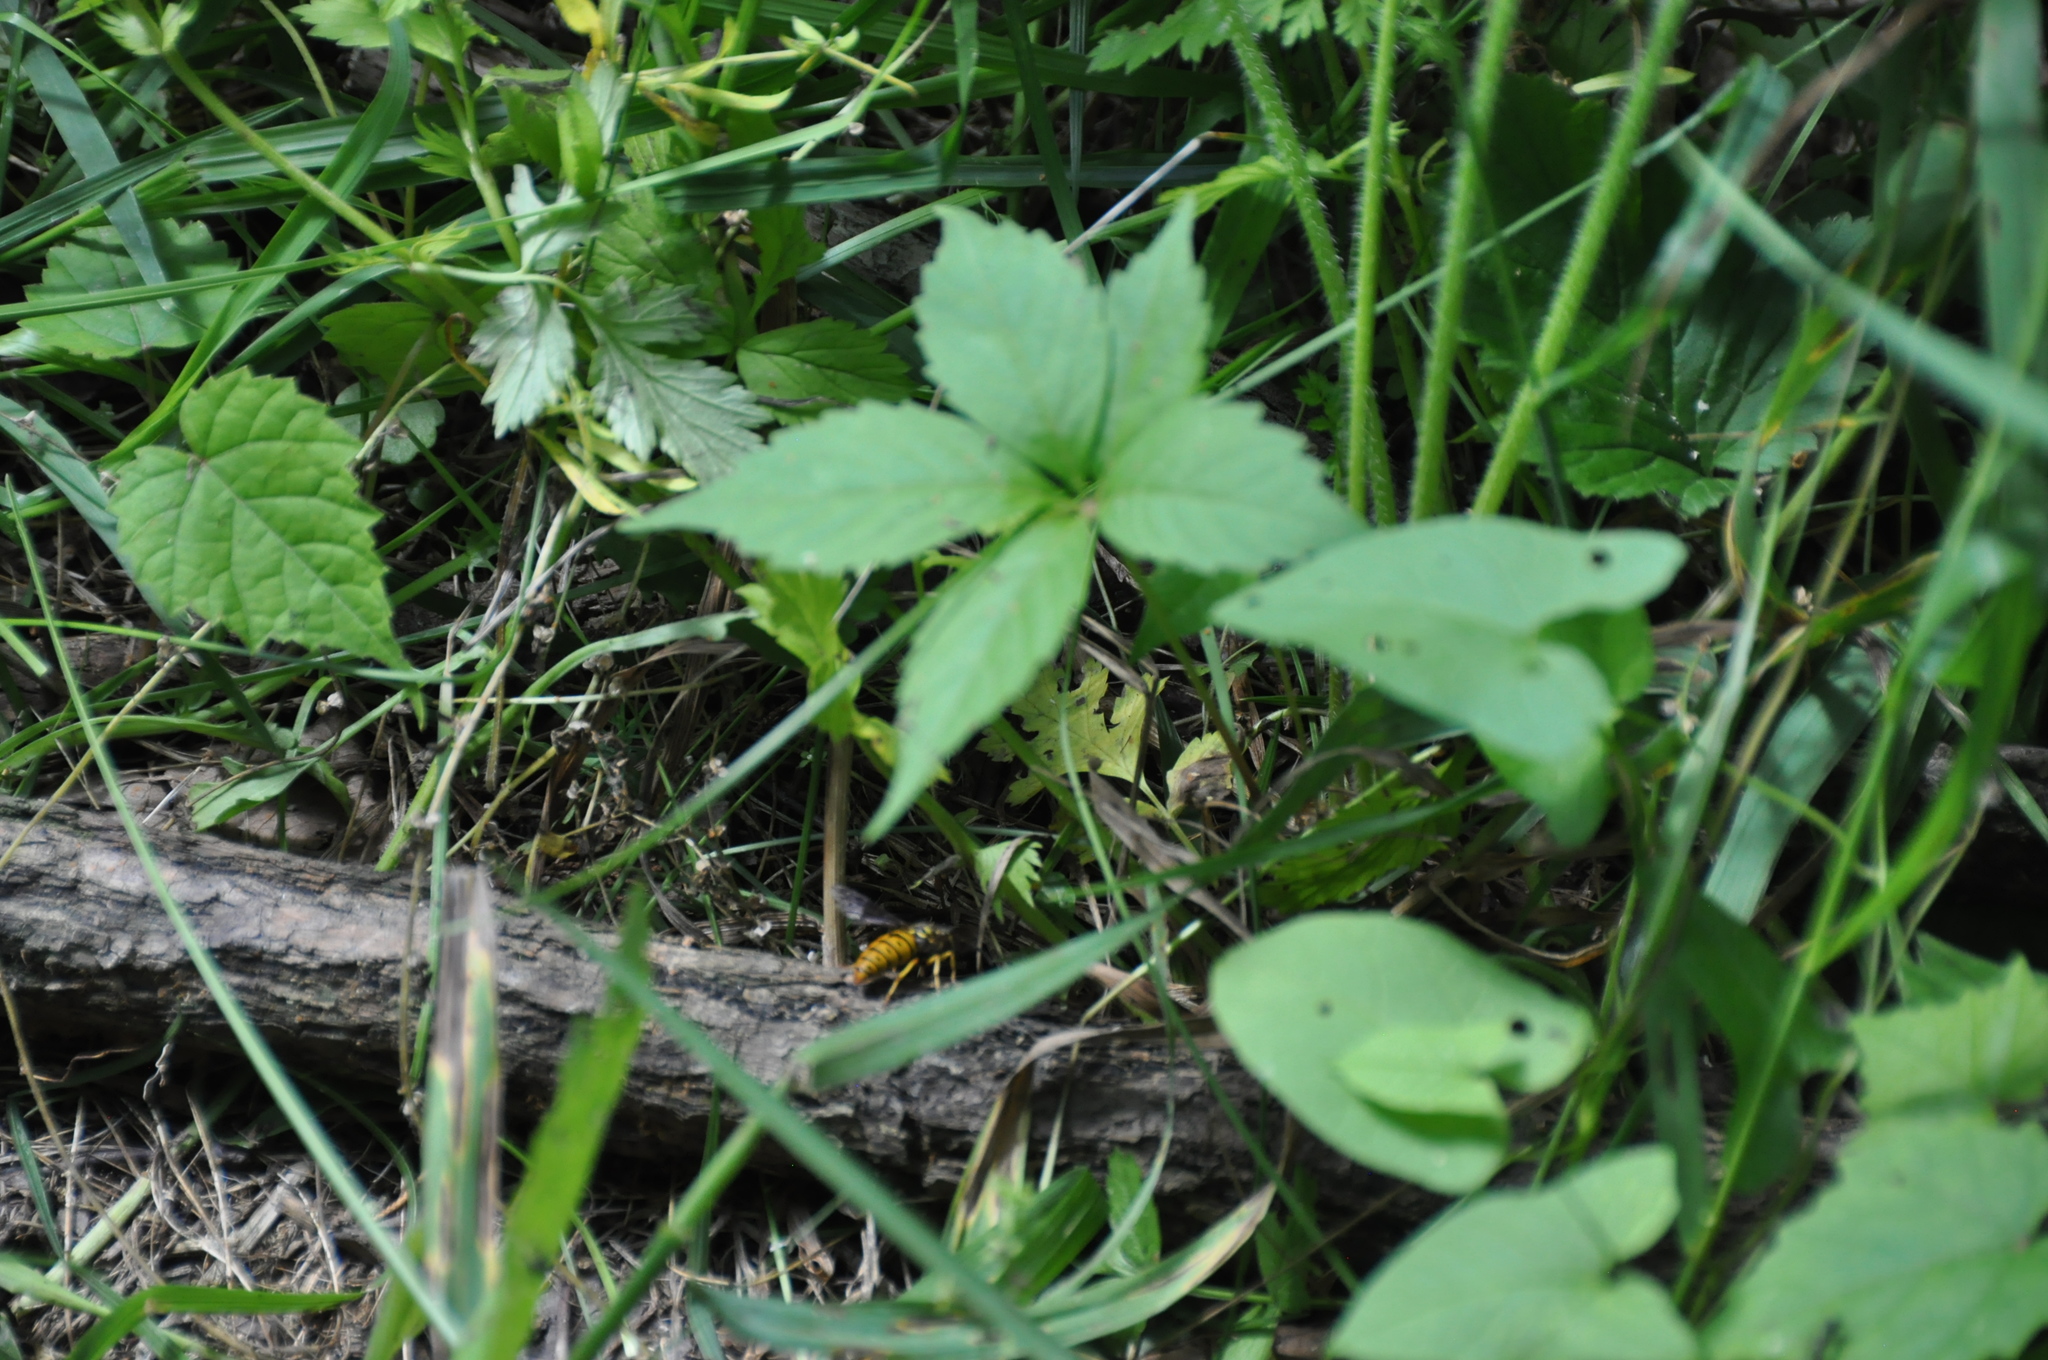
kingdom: Animalia
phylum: Arthropoda
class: Insecta
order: Hymenoptera
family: Vespidae
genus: Vespula
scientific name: Vespula maculifrons
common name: Eastern yellowjacket
